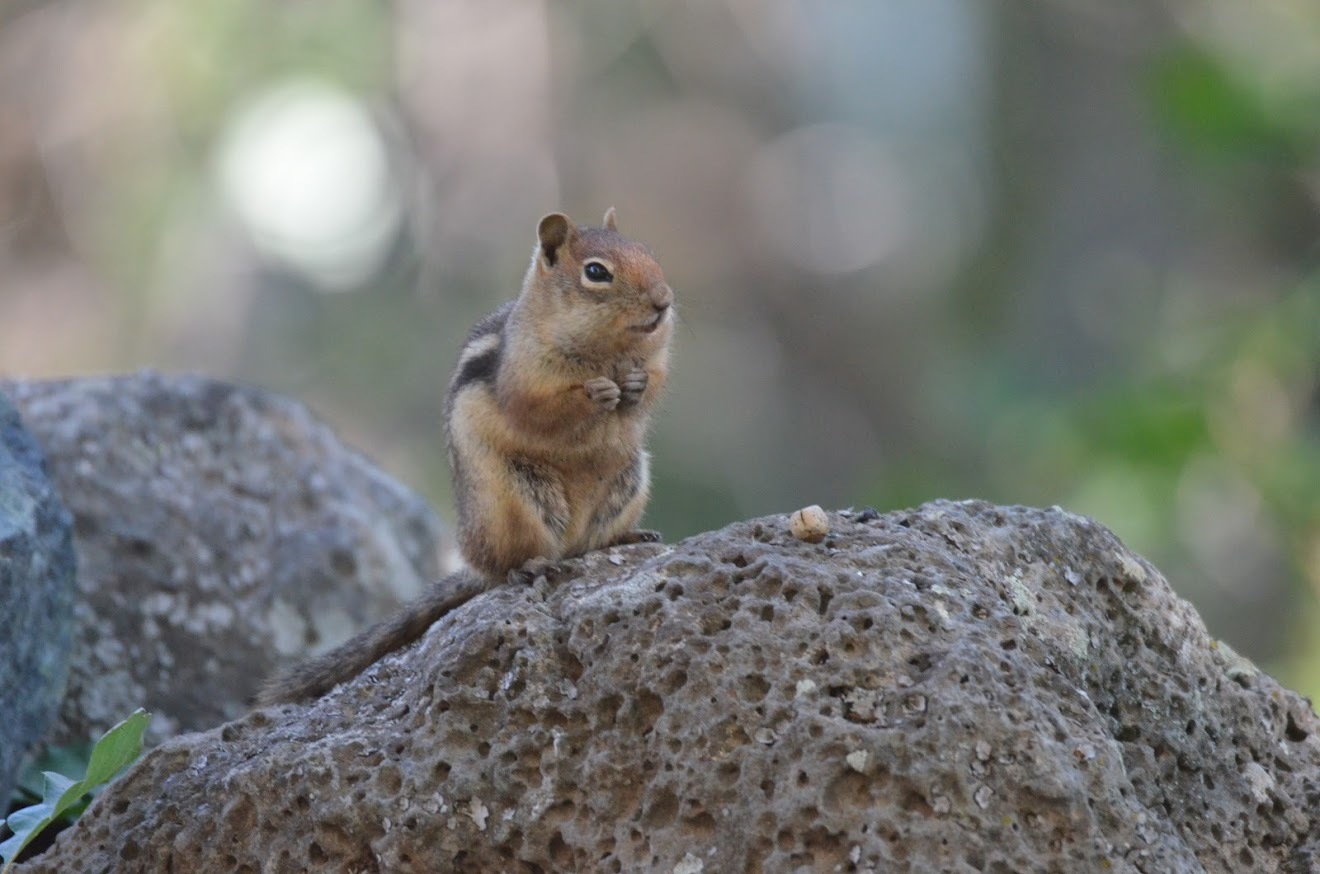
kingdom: Animalia
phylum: Chordata
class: Mammalia
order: Rodentia
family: Sciuridae
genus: Callospermophilus
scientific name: Callospermophilus lateralis
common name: Golden-mantled ground squirrel
